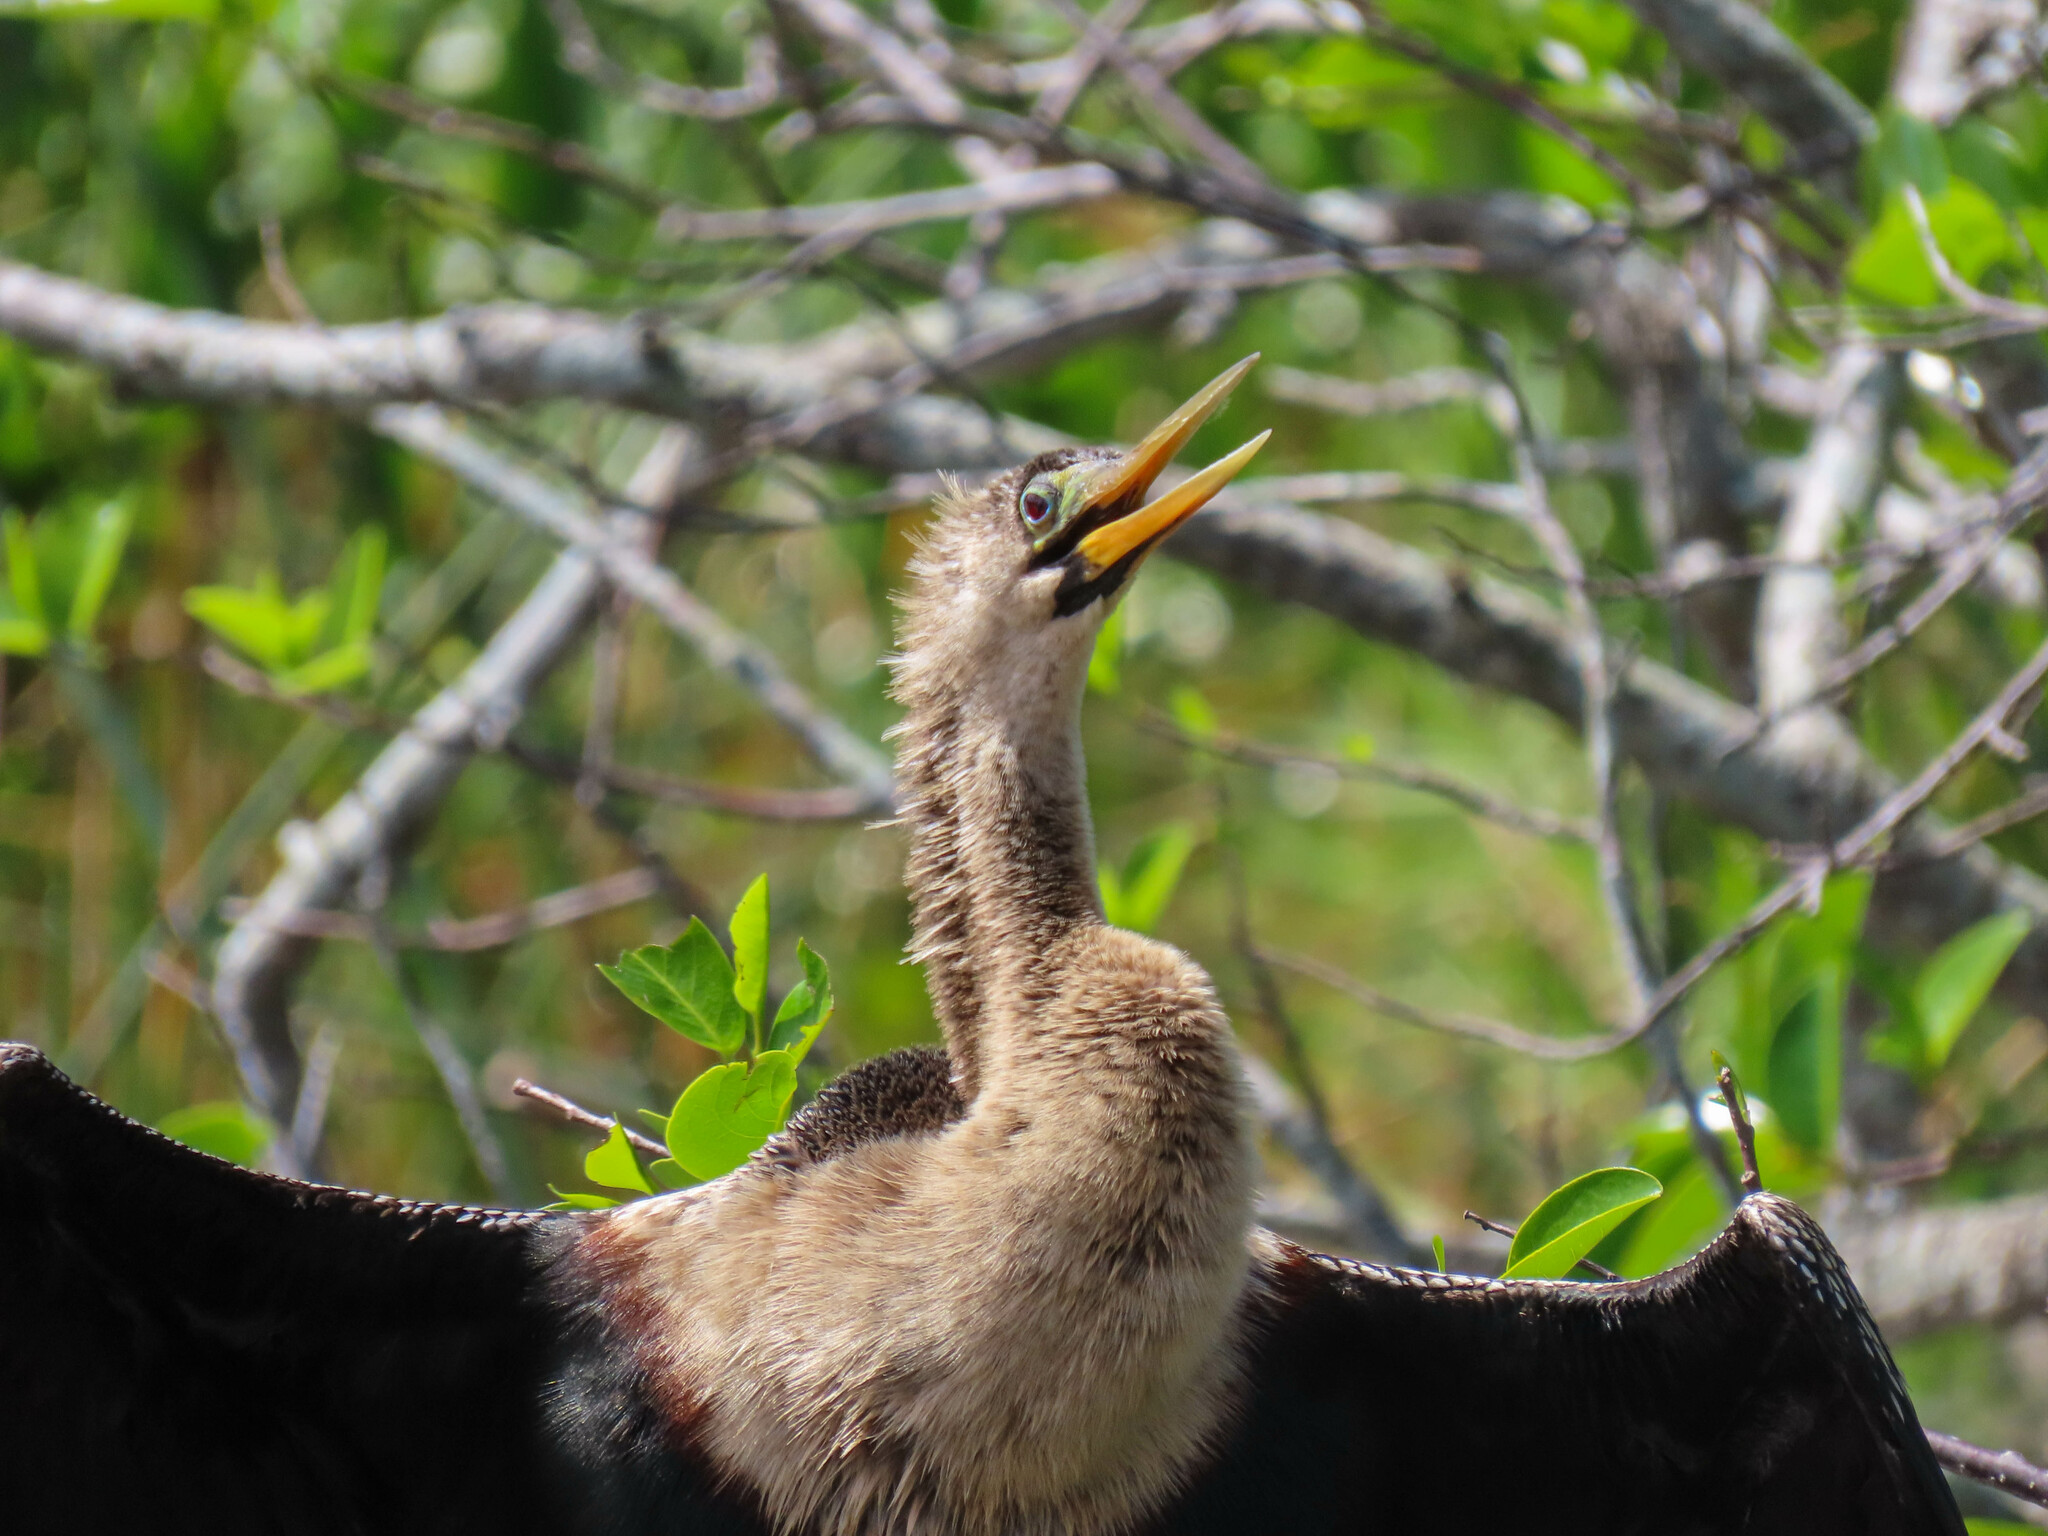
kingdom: Animalia
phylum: Chordata
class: Aves
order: Suliformes
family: Anhingidae
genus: Anhinga
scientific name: Anhinga anhinga
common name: Anhinga
